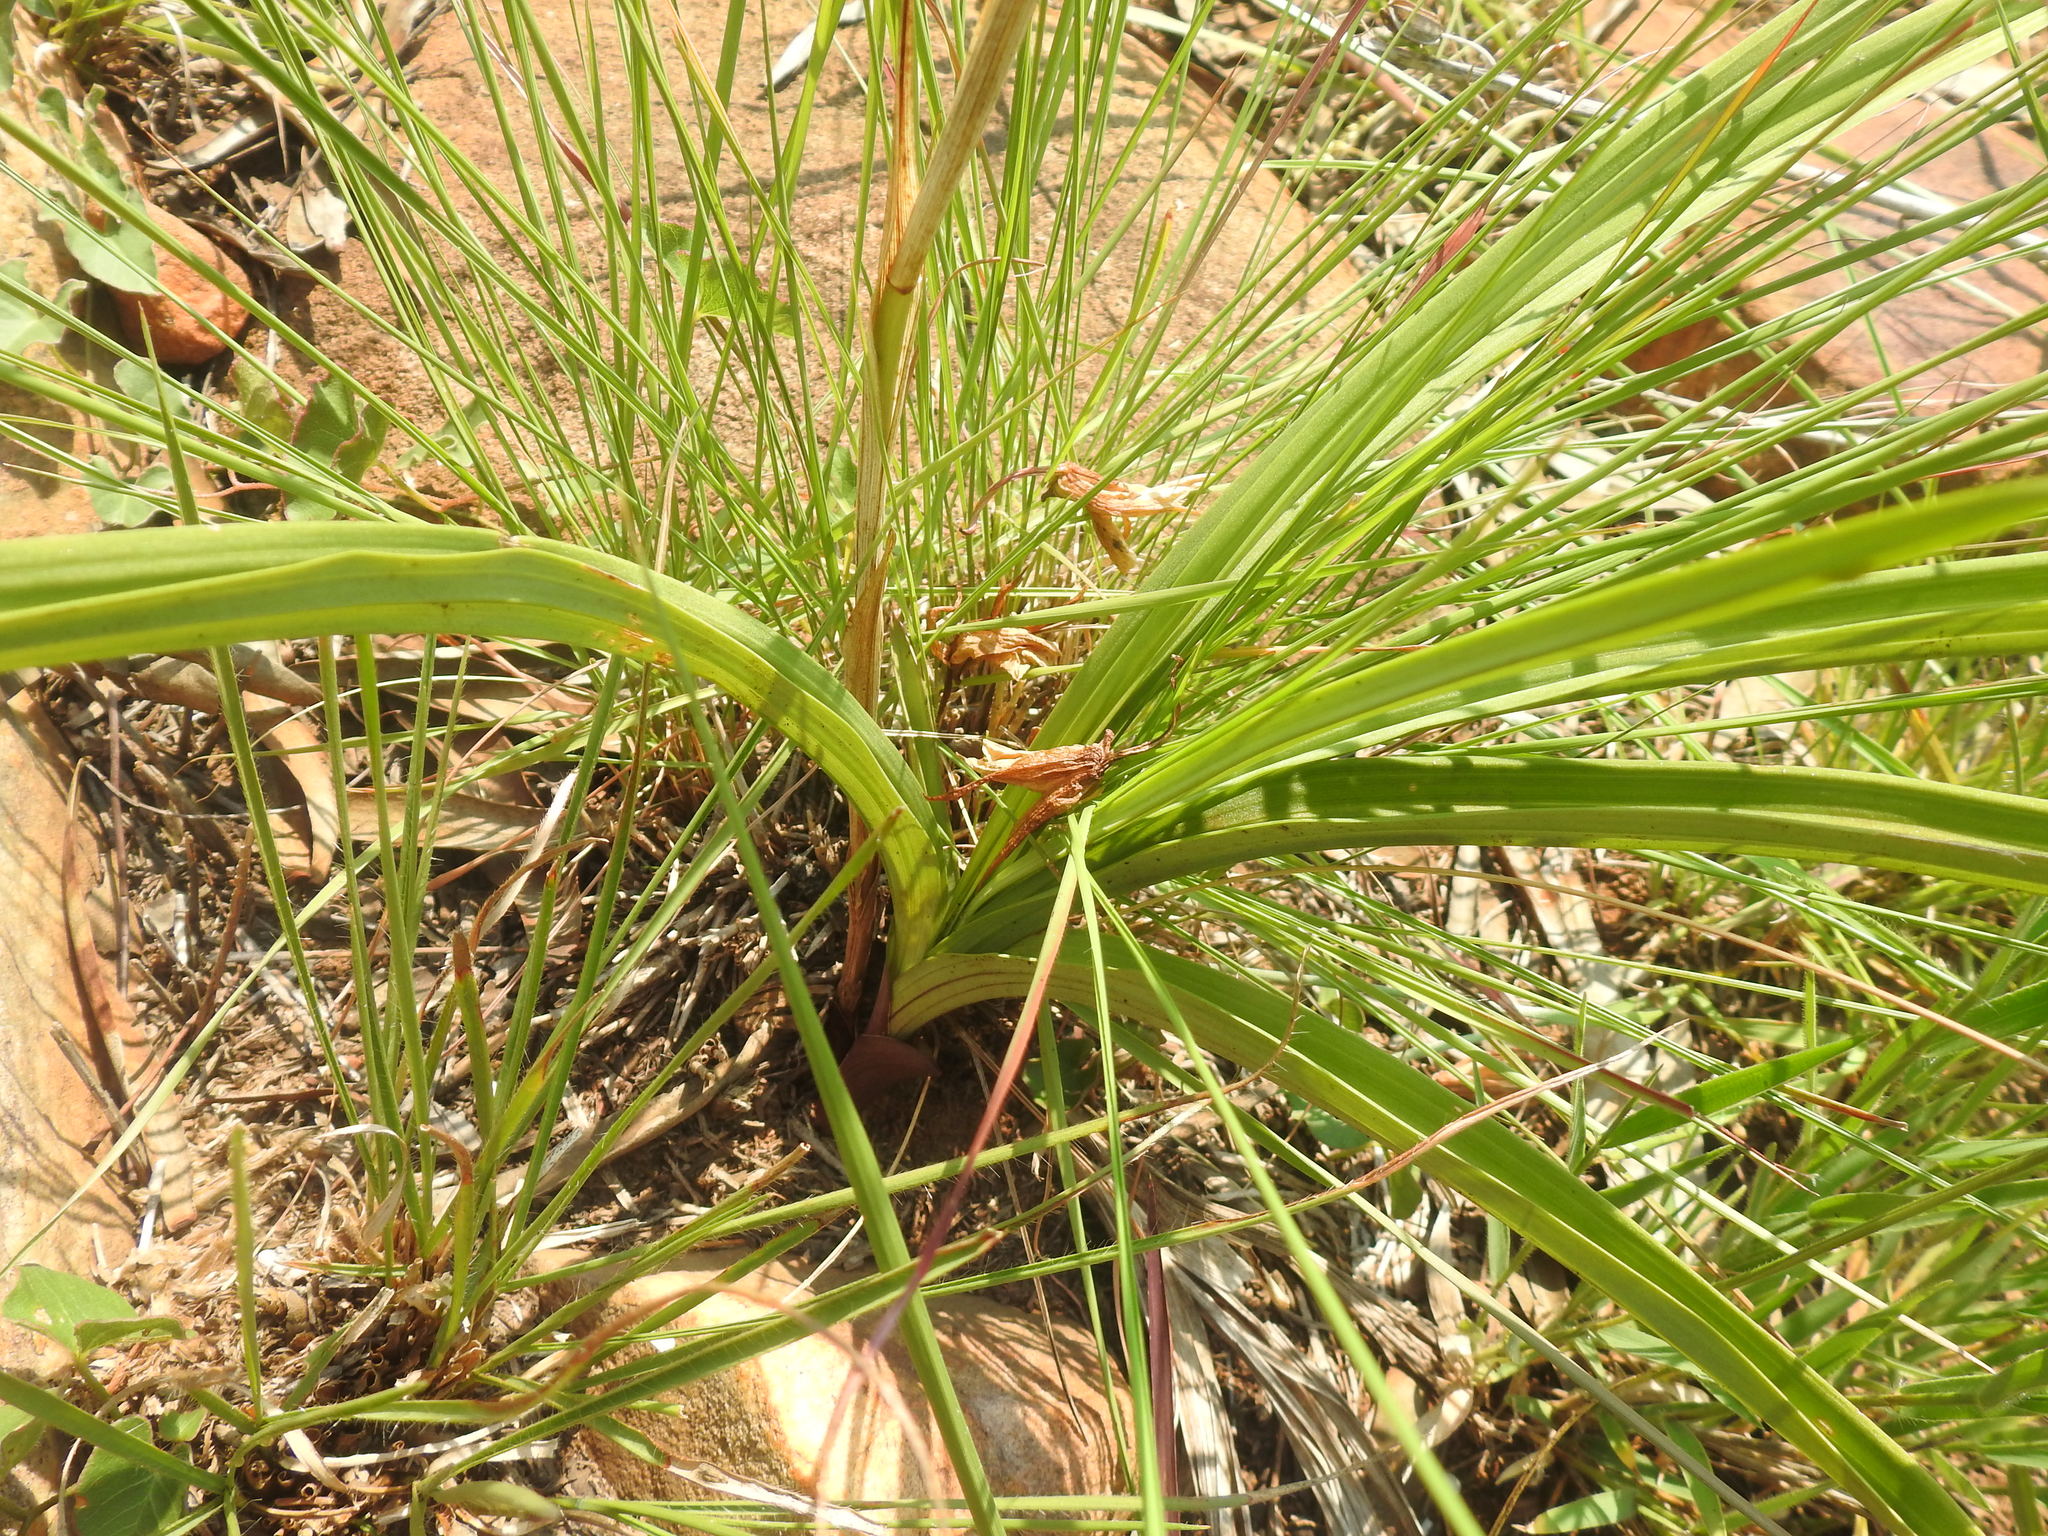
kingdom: Plantae
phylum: Tracheophyta
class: Liliopsida
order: Asparagales
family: Orchidaceae
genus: Eulophia
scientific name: Eulophia ovalis
